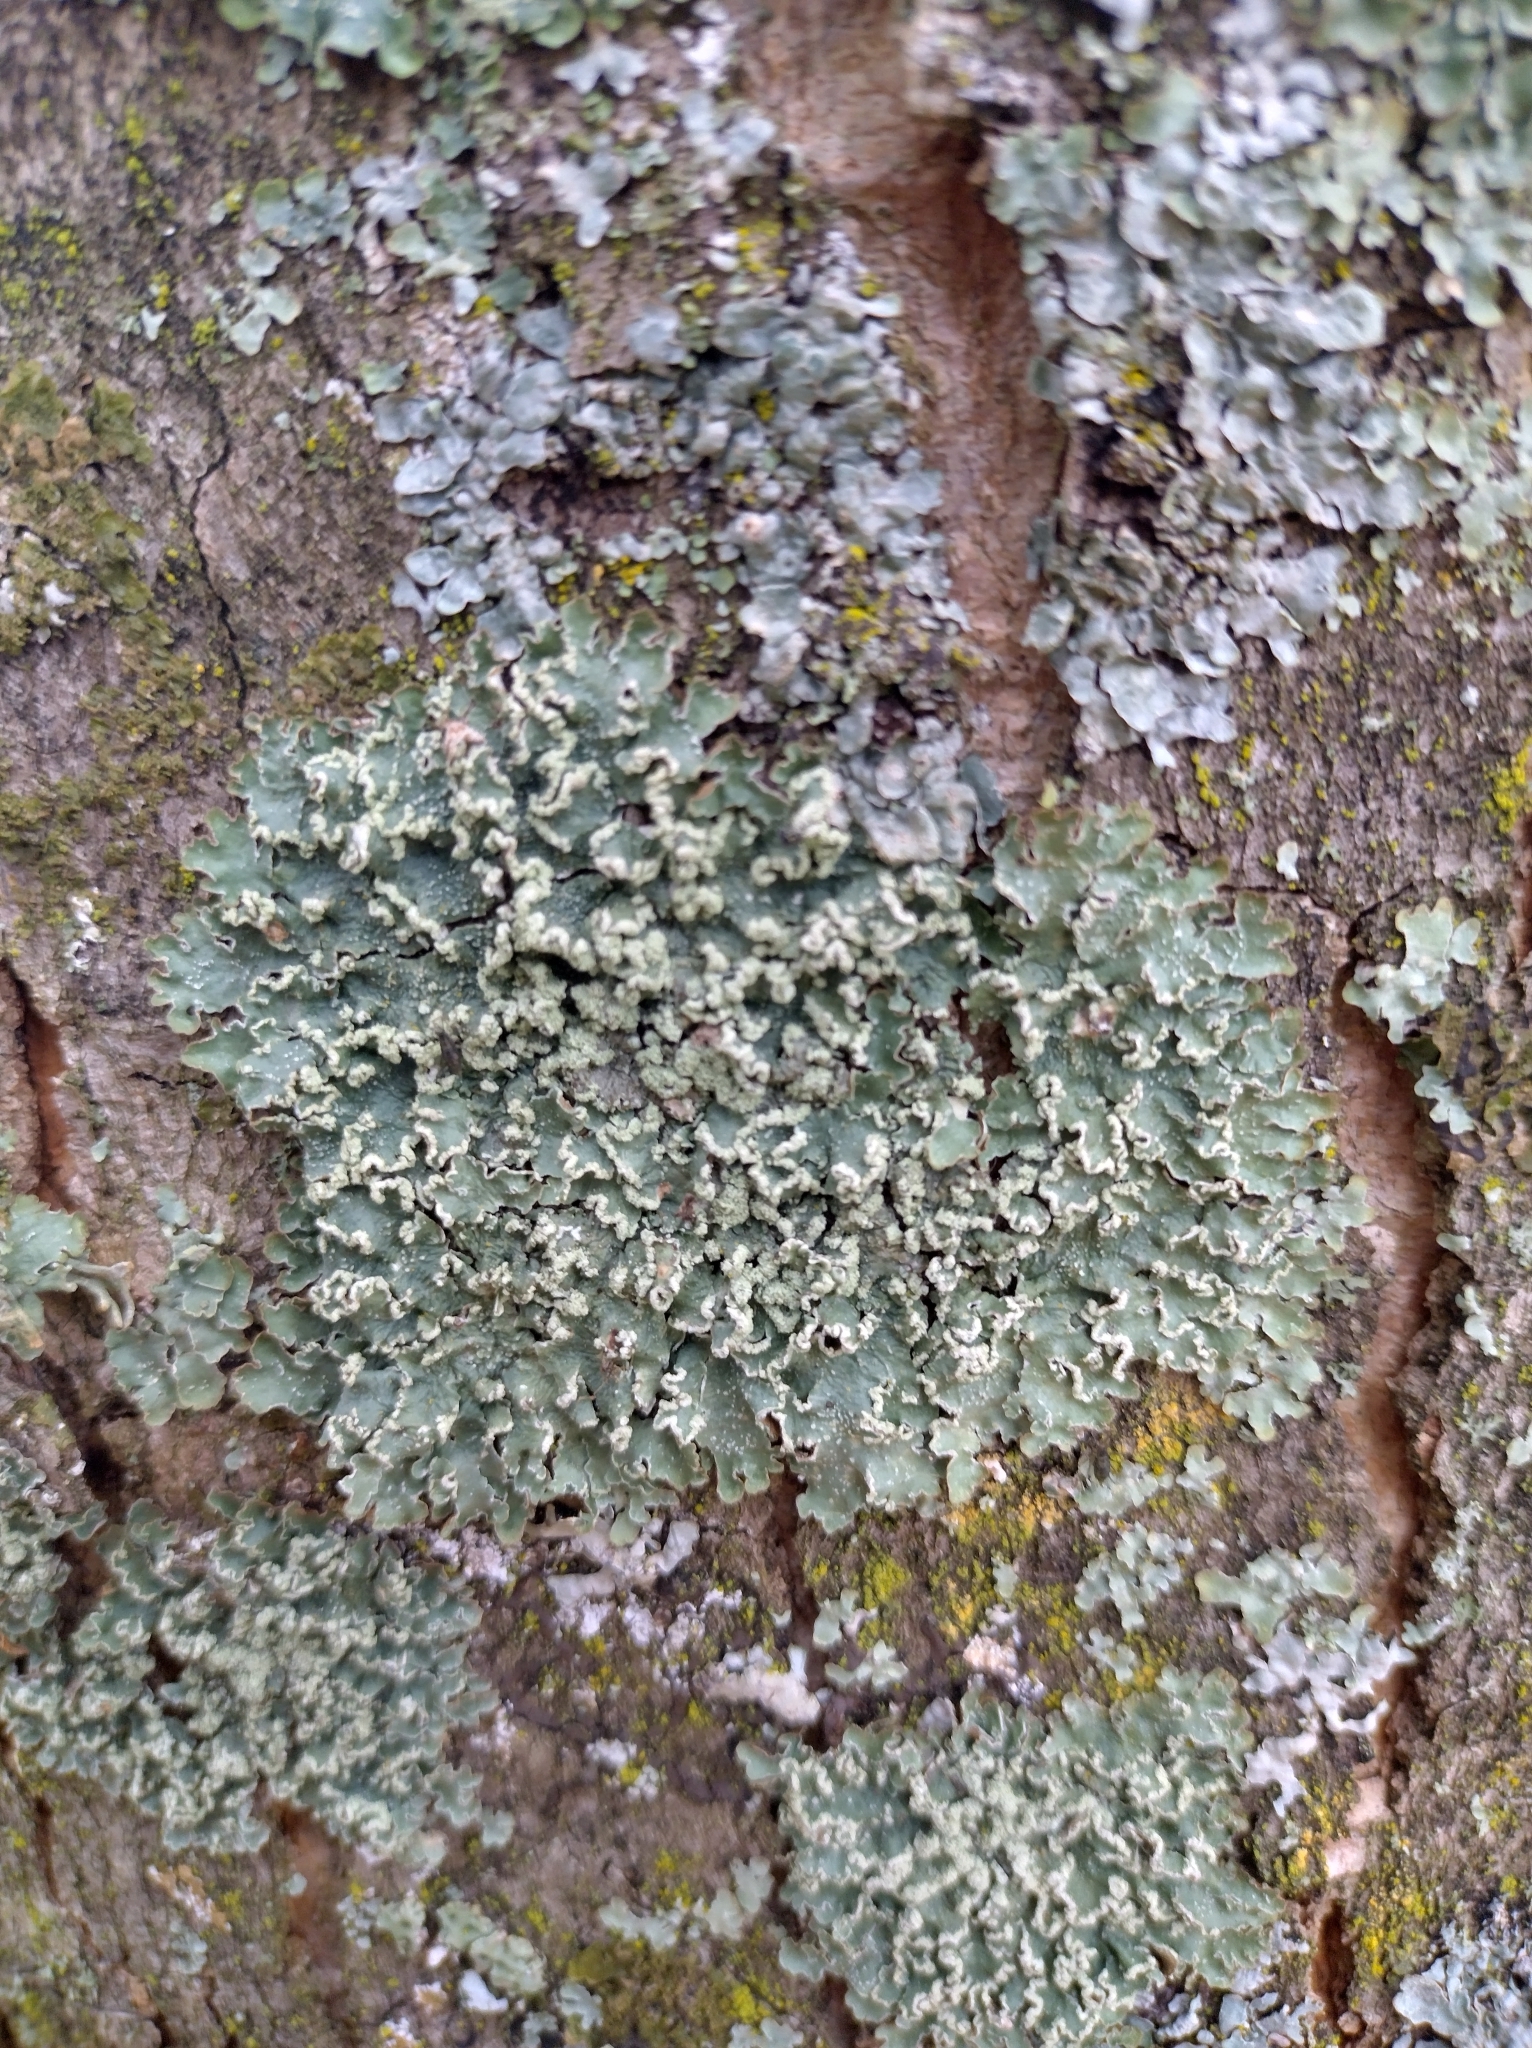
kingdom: Fungi
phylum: Ascomycota
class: Lecanoromycetes
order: Lecanorales
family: Parmeliaceae
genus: Punctelia
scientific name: Punctelia jeckeri
